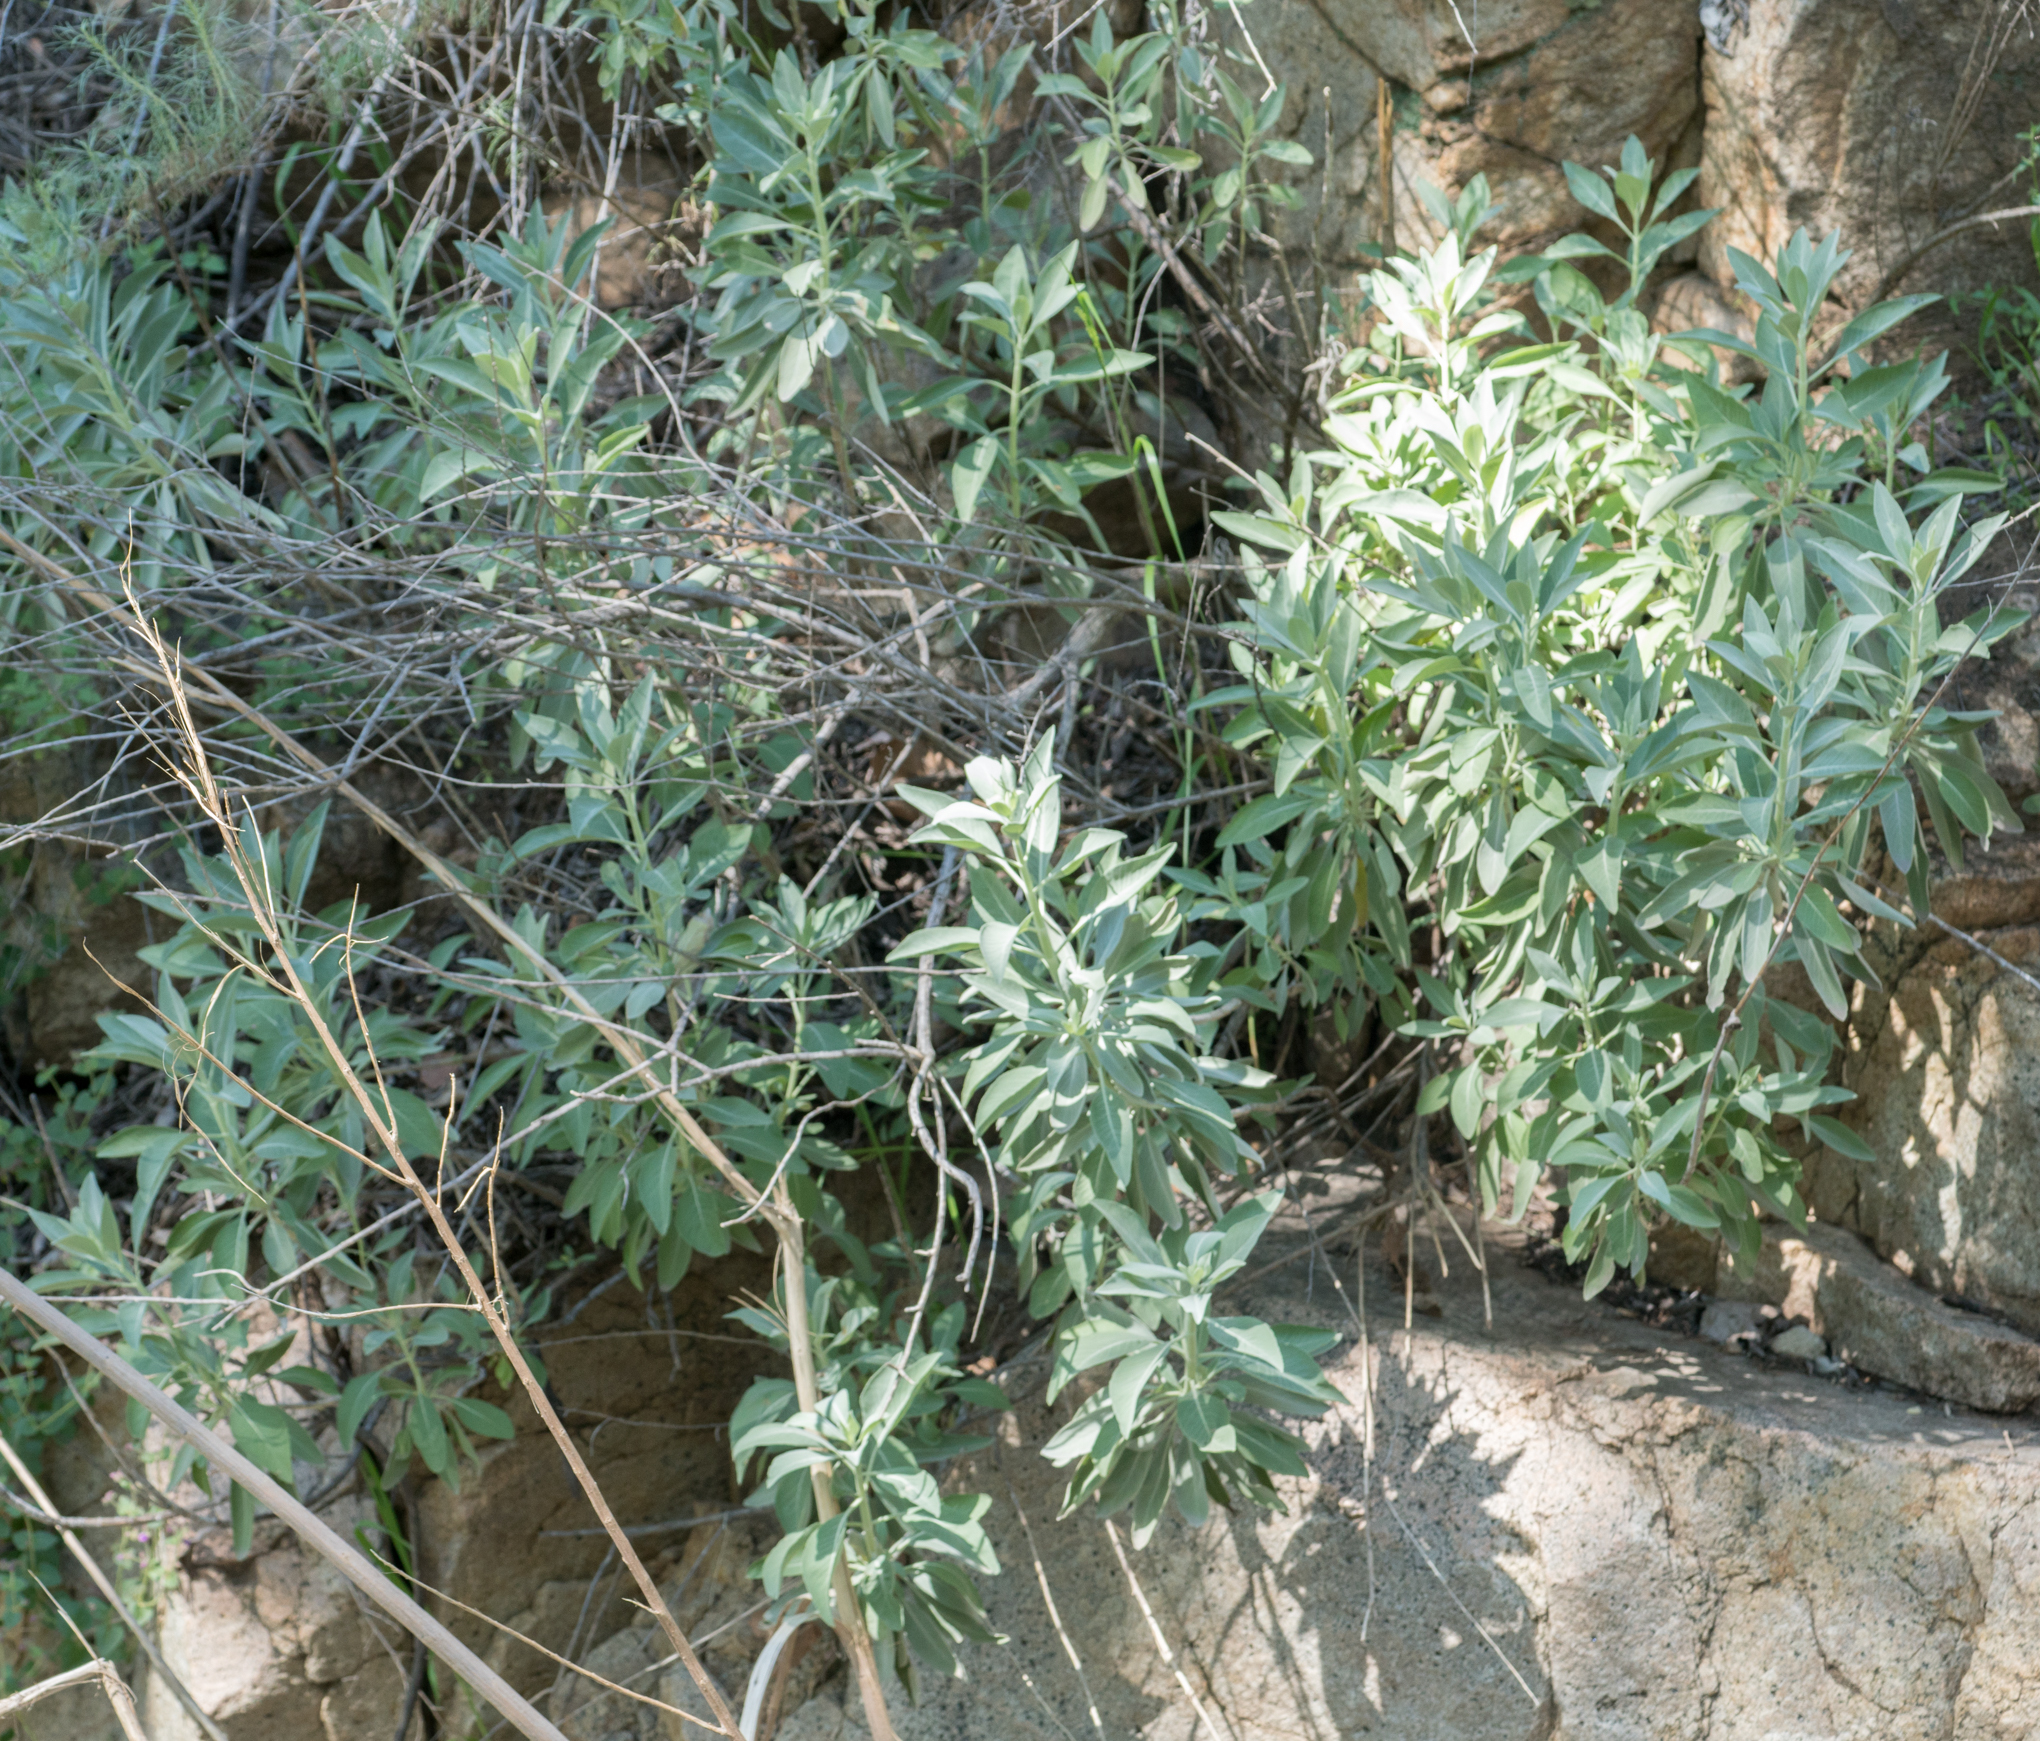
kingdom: Plantae
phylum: Tracheophyta
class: Magnoliopsida
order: Lamiales
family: Lamiaceae
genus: Salvia
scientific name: Salvia apiana
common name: White sage
